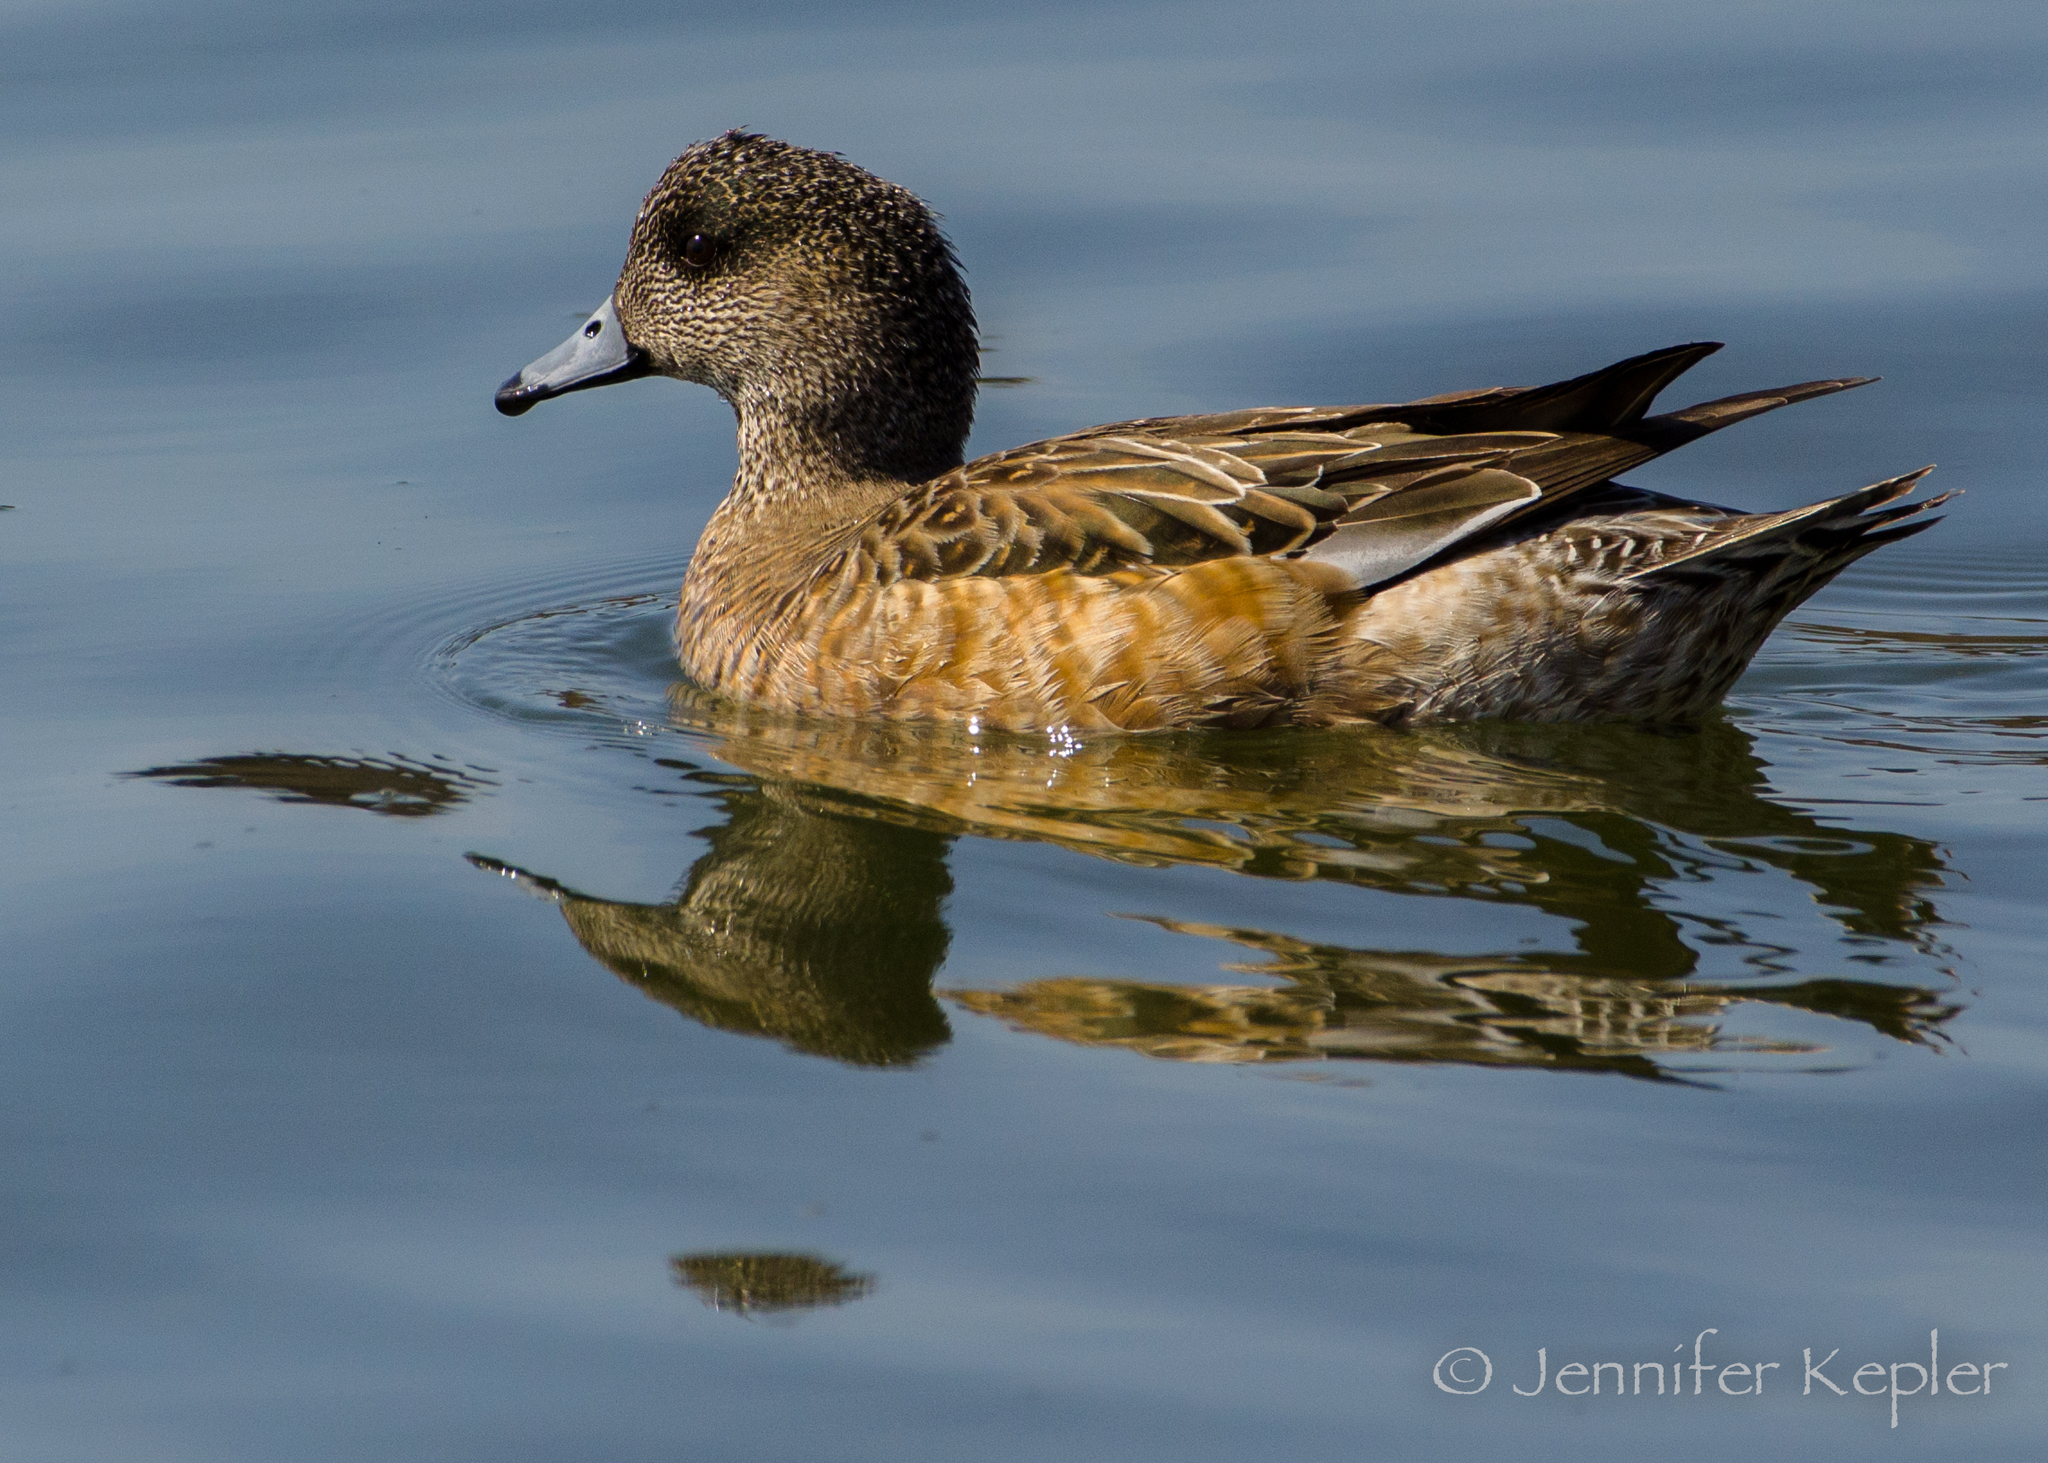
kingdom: Animalia
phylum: Chordata
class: Aves
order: Anseriformes
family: Anatidae
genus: Mareca
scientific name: Mareca americana
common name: American wigeon
